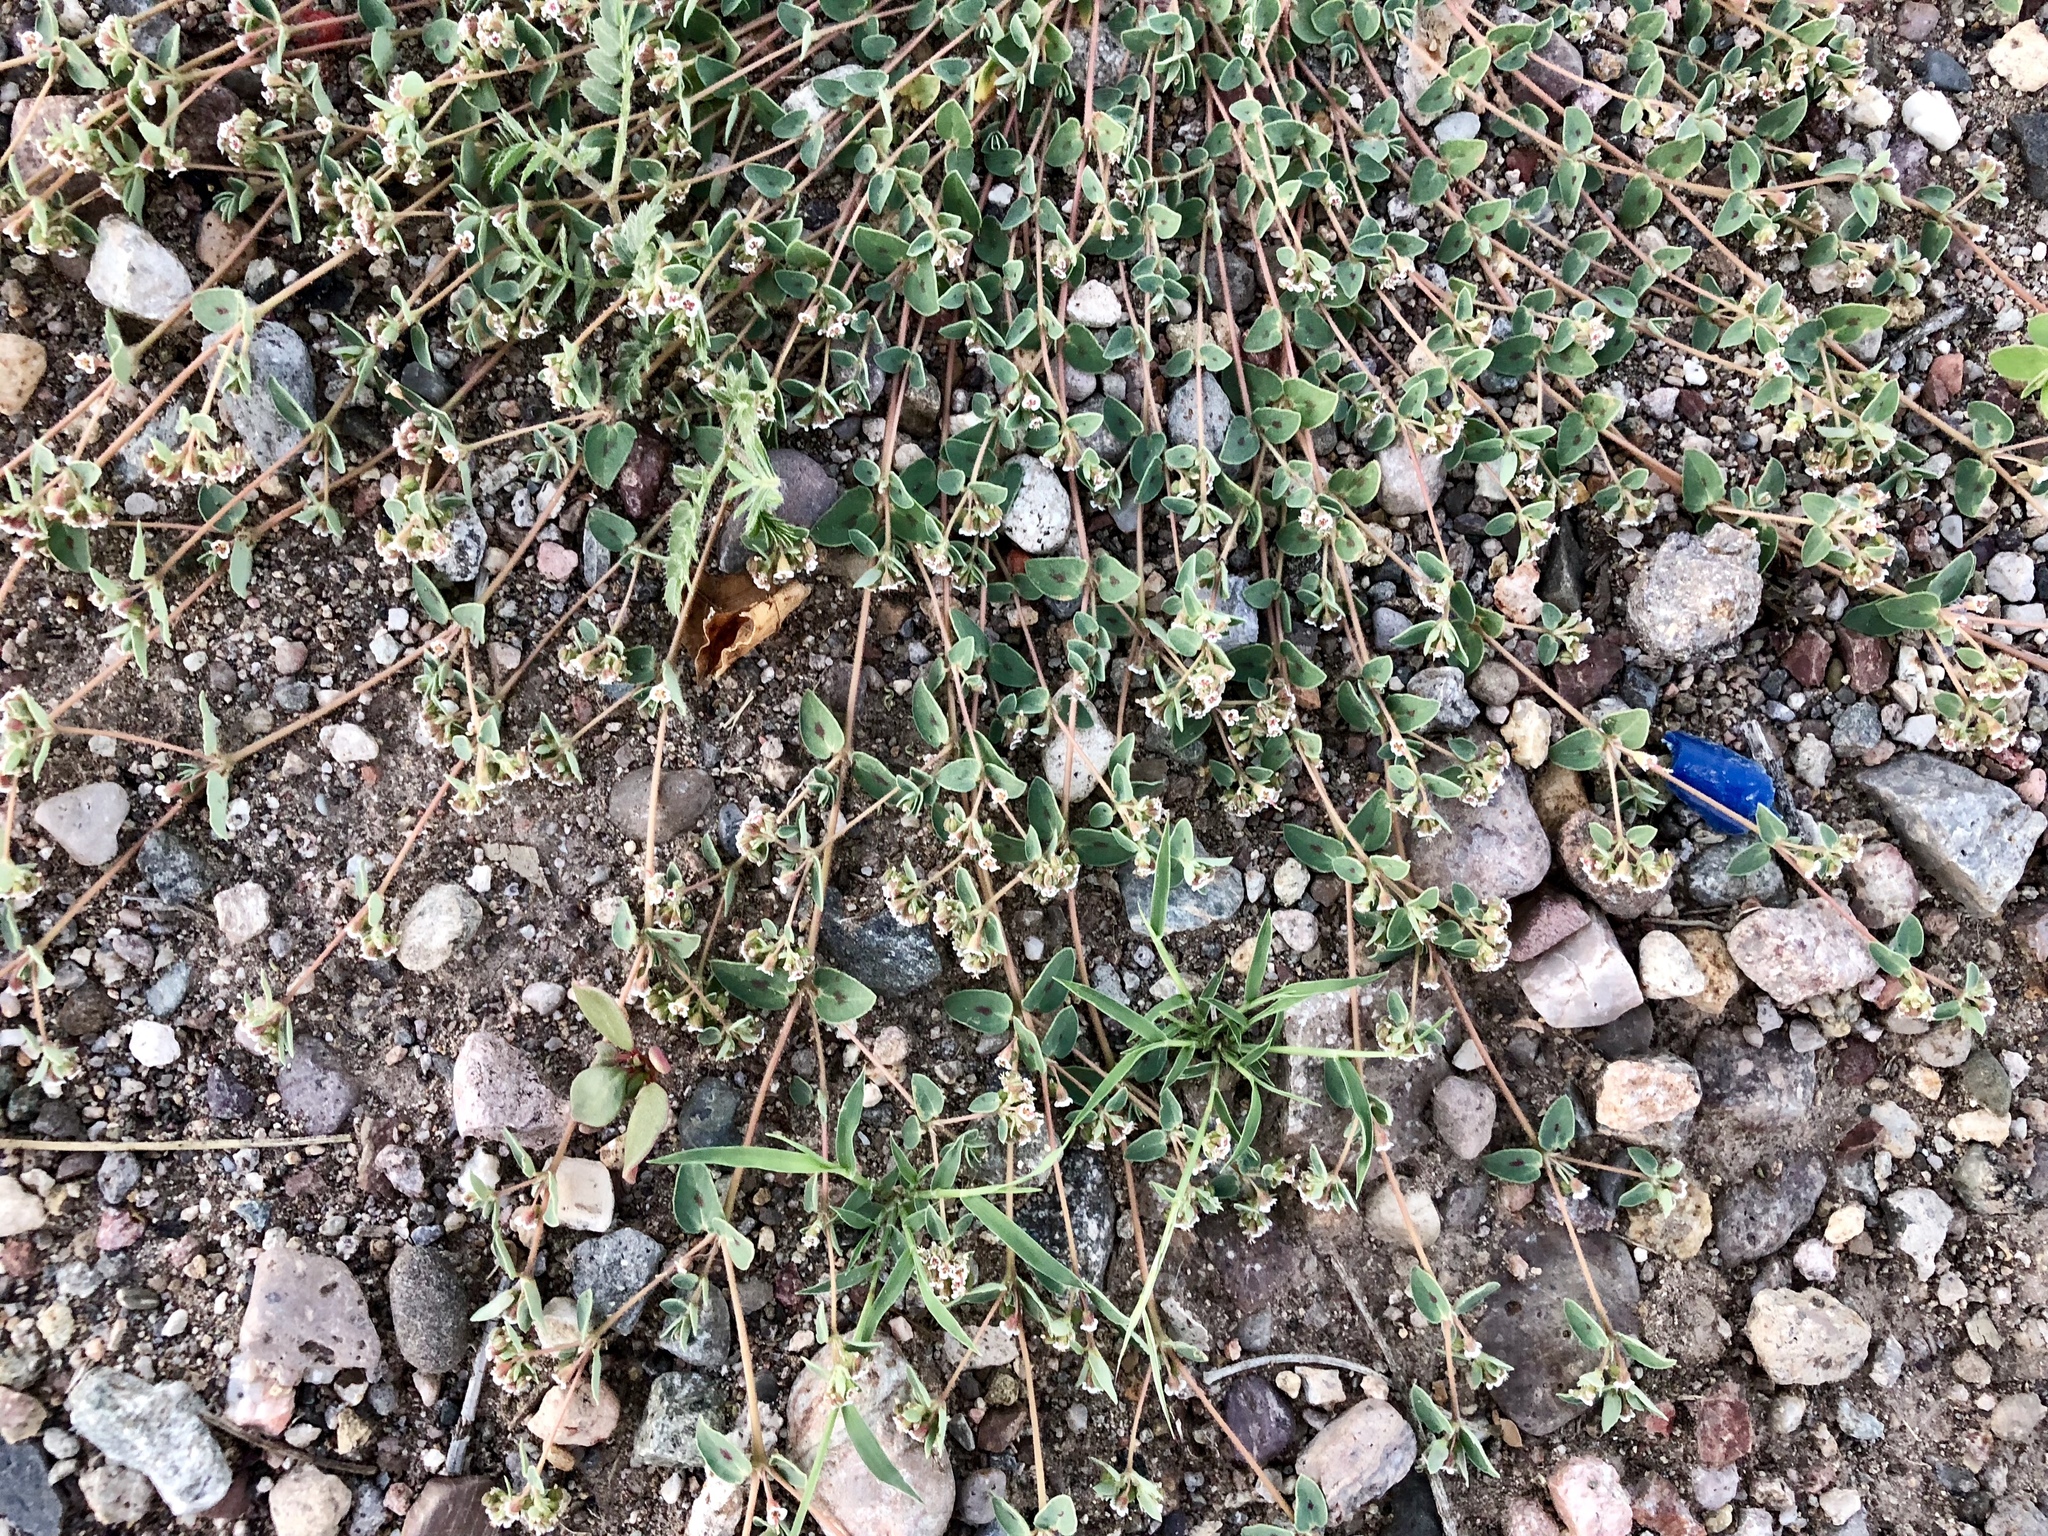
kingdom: Plantae
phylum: Tracheophyta
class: Magnoliopsida
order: Malpighiales
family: Euphorbiaceae
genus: Euphorbia
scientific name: Euphorbia capitellata
